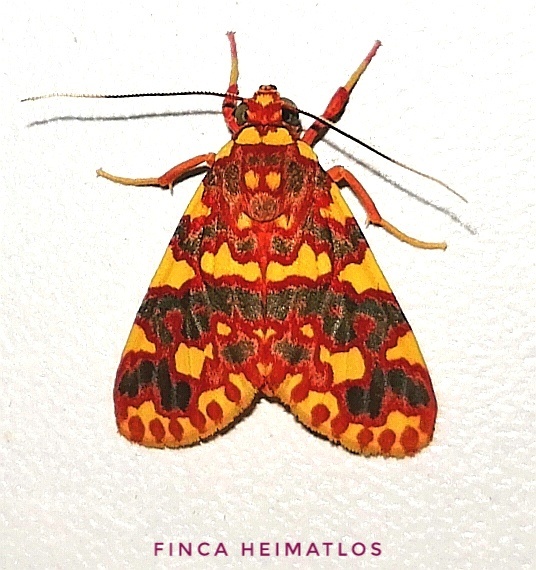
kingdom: Animalia
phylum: Arthropoda
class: Insecta
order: Lepidoptera
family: Erebidae
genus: Hyponerita
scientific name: Hyponerita persimilis
